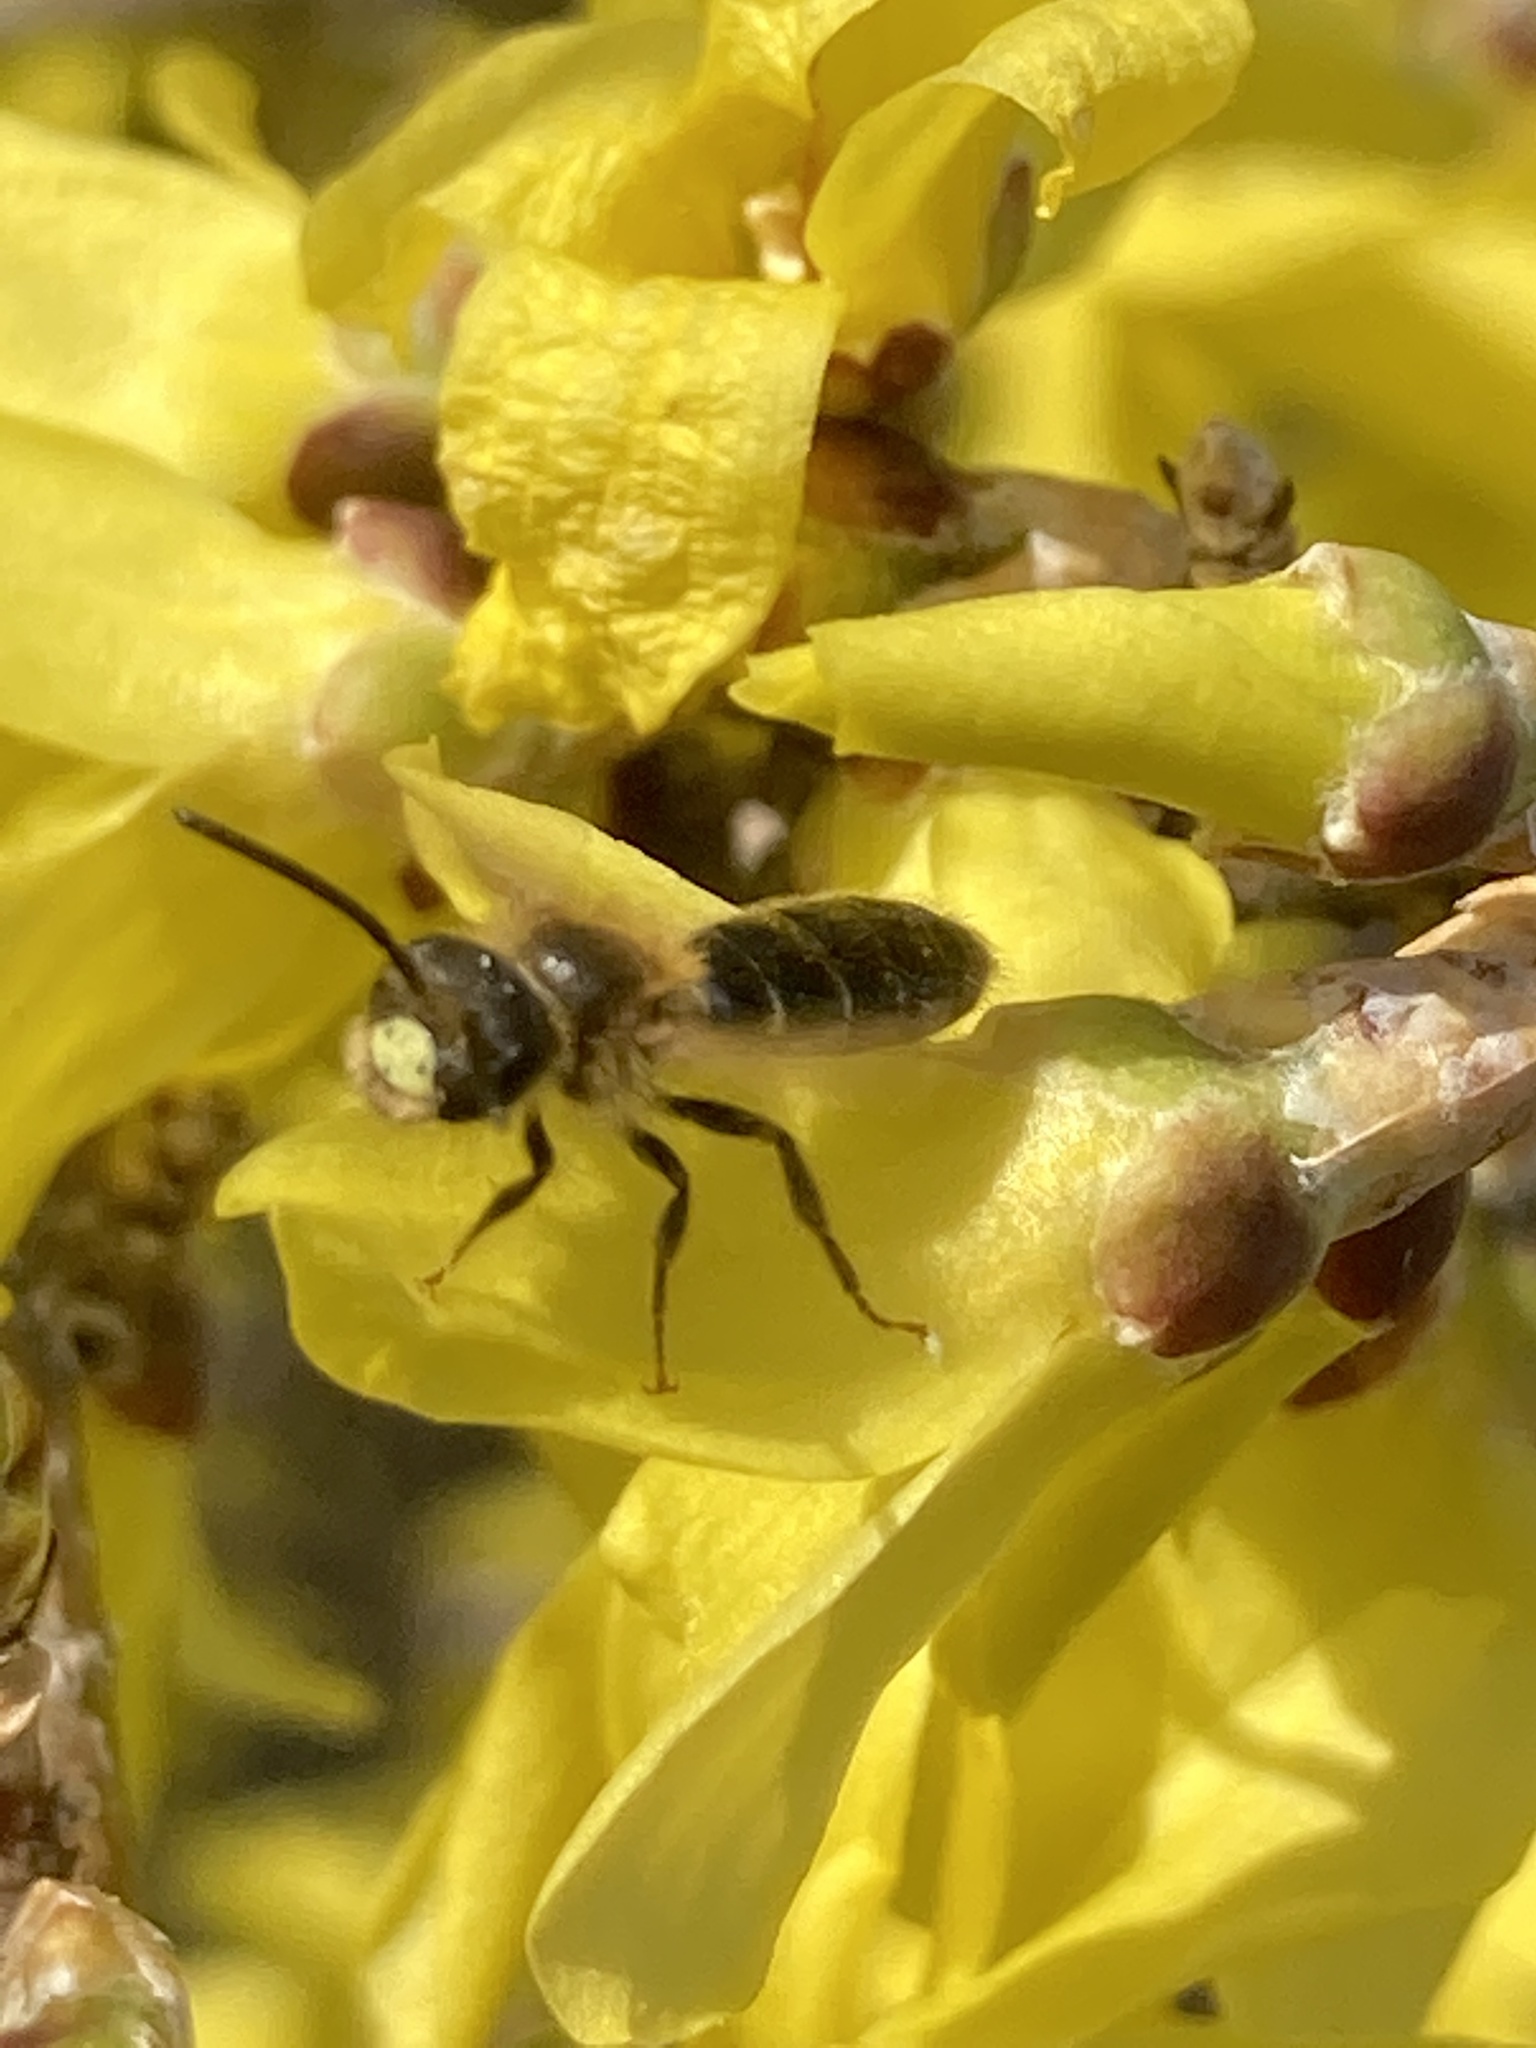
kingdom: Animalia
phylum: Arthropoda
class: Insecta
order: Hymenoptera
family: Andrenidae
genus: Andrena
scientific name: Andrena miserabilis
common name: Miserable mining bee
